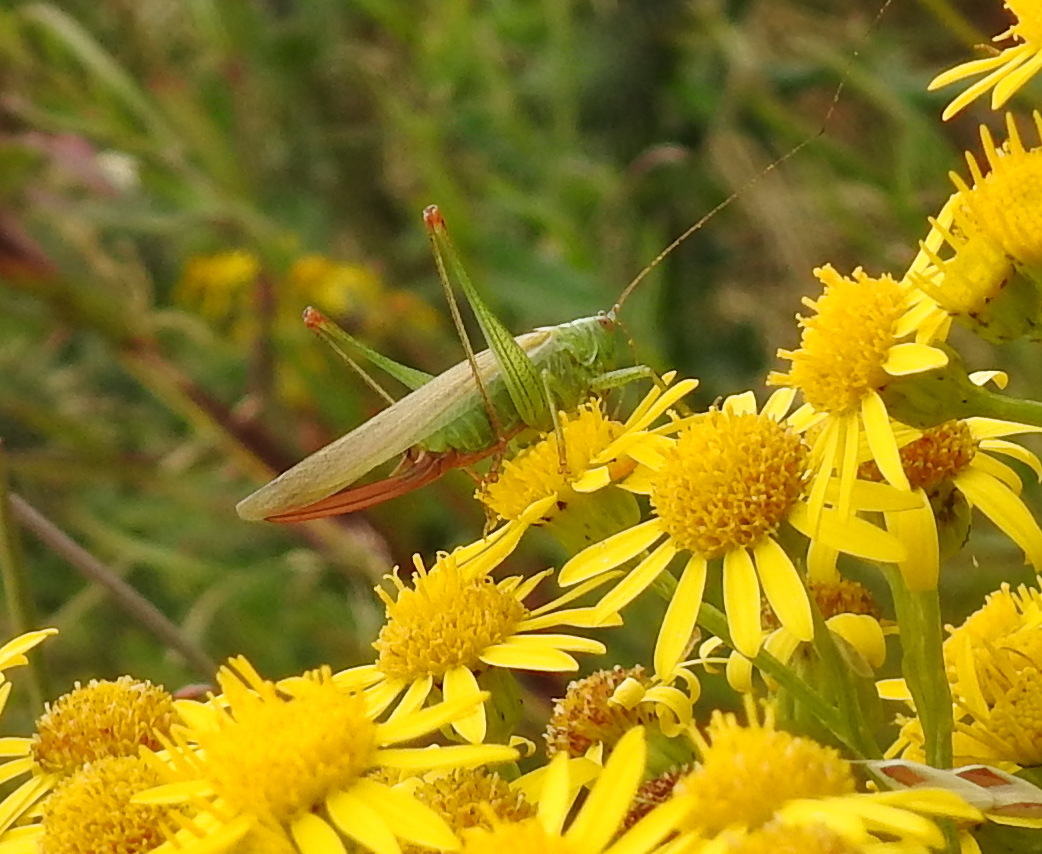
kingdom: Animalia
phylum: Arthropoda
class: Insecta
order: Orthoptera
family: Tettigoniidae
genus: Conocephalus
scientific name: Conocephalus fuscus
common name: Long-winged conehead
